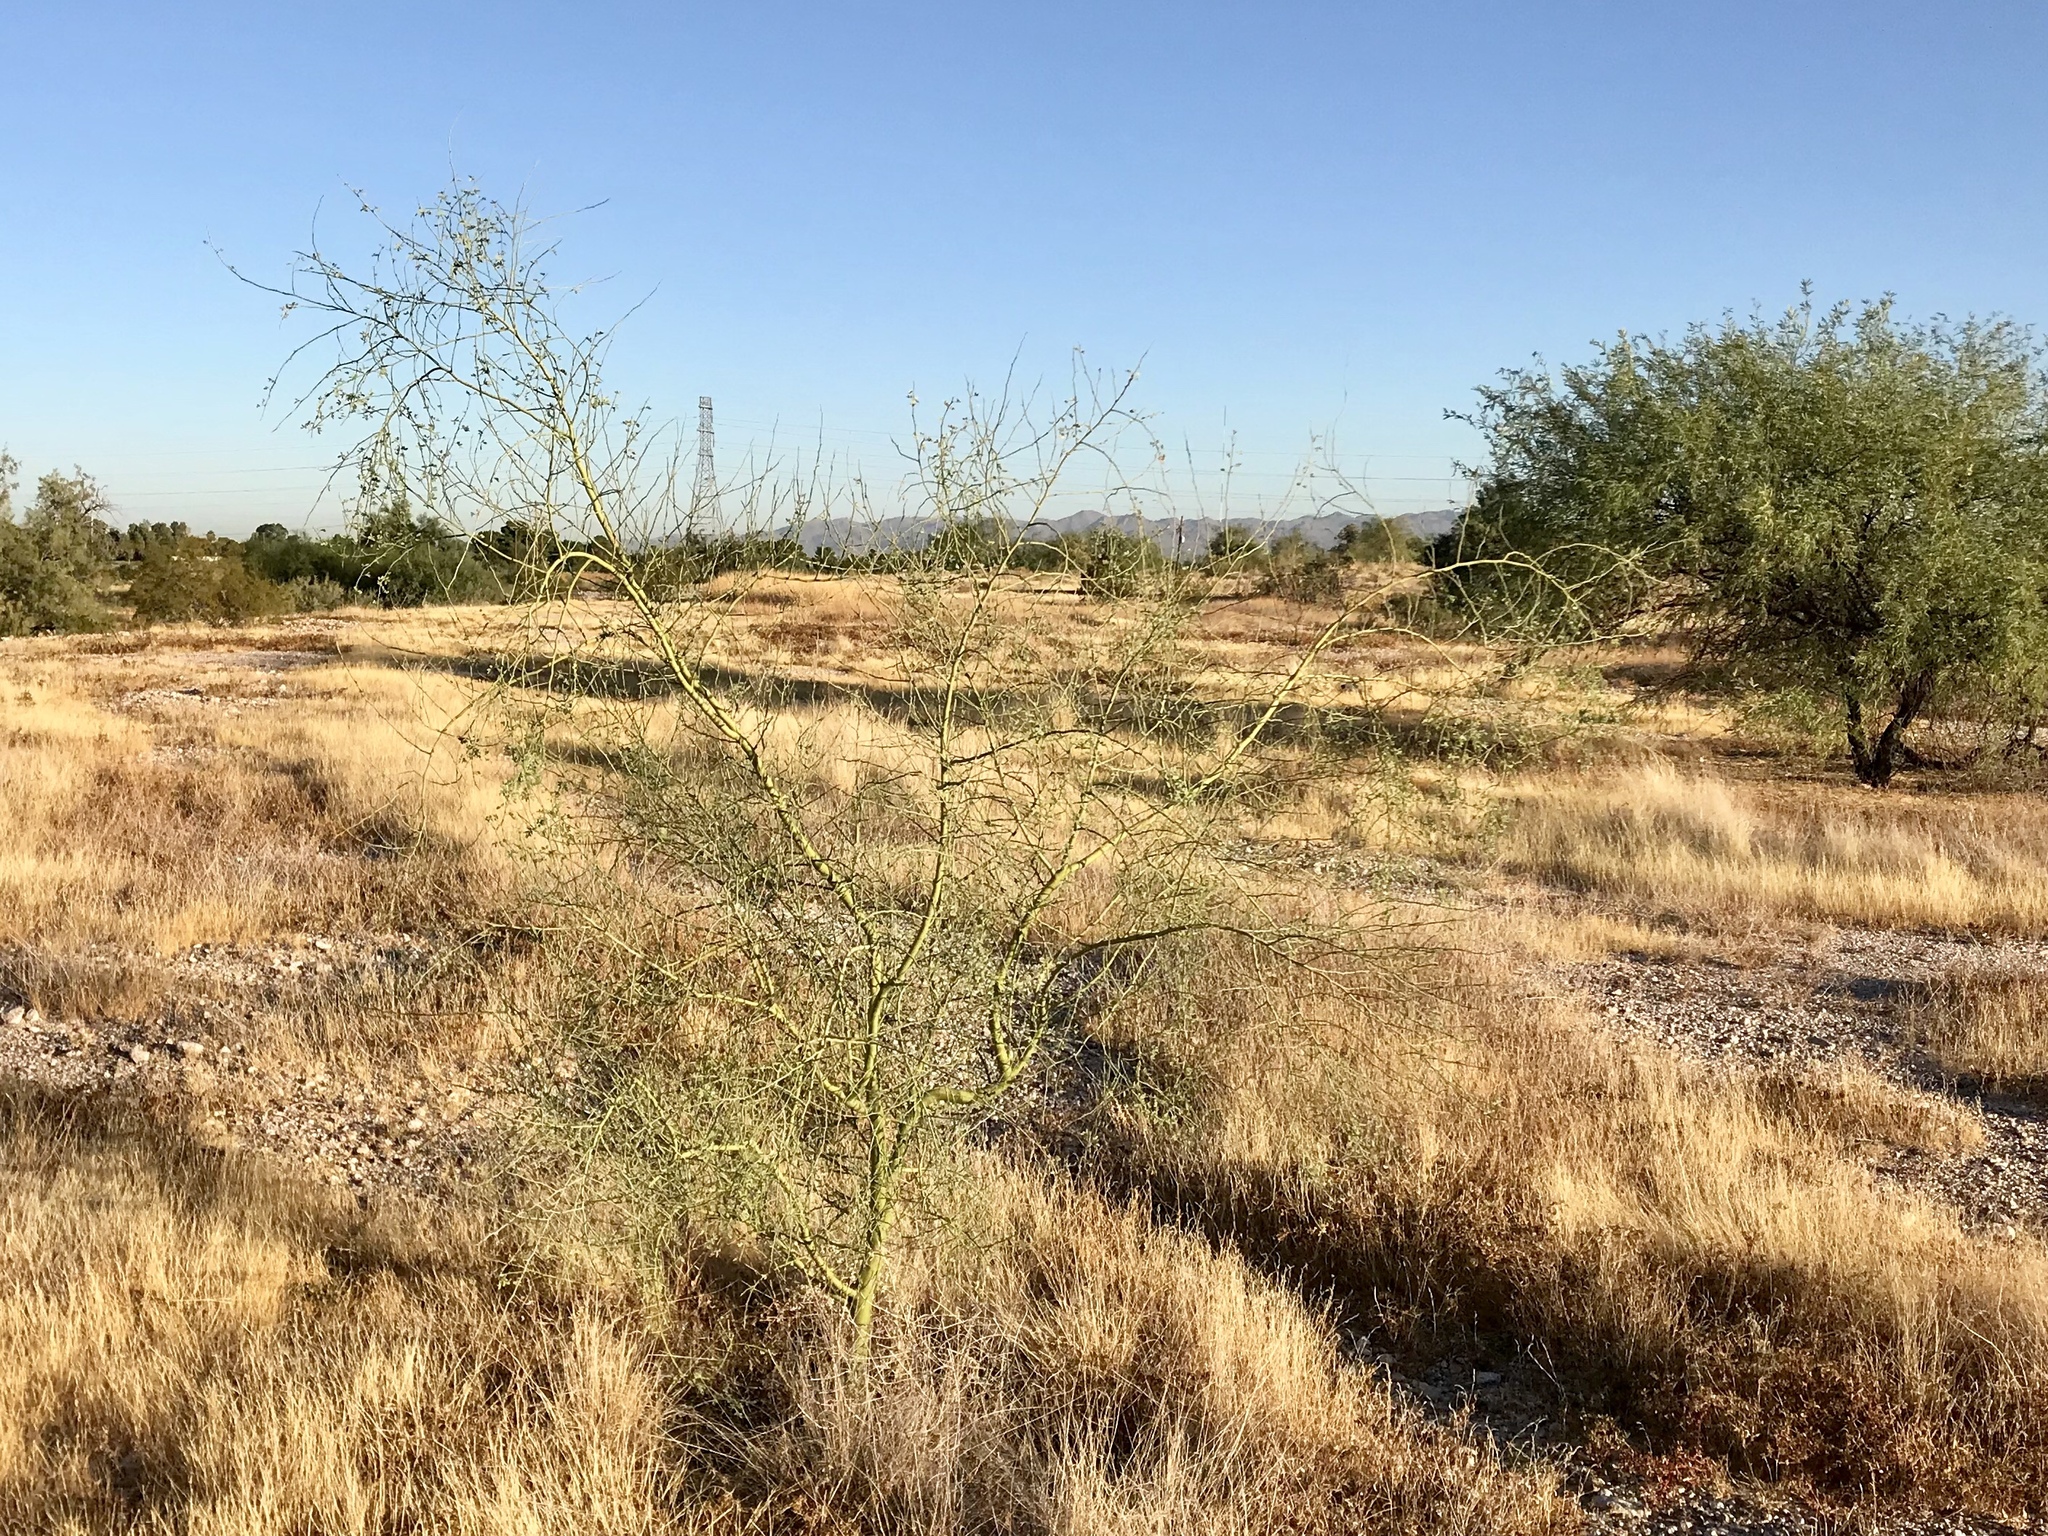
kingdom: Plantae
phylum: Tracheophyta
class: Magnoliopsida
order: Fabales
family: Fabaceae
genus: Parkinsonia
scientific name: Parkinsonia florida
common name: Blue paloverde
